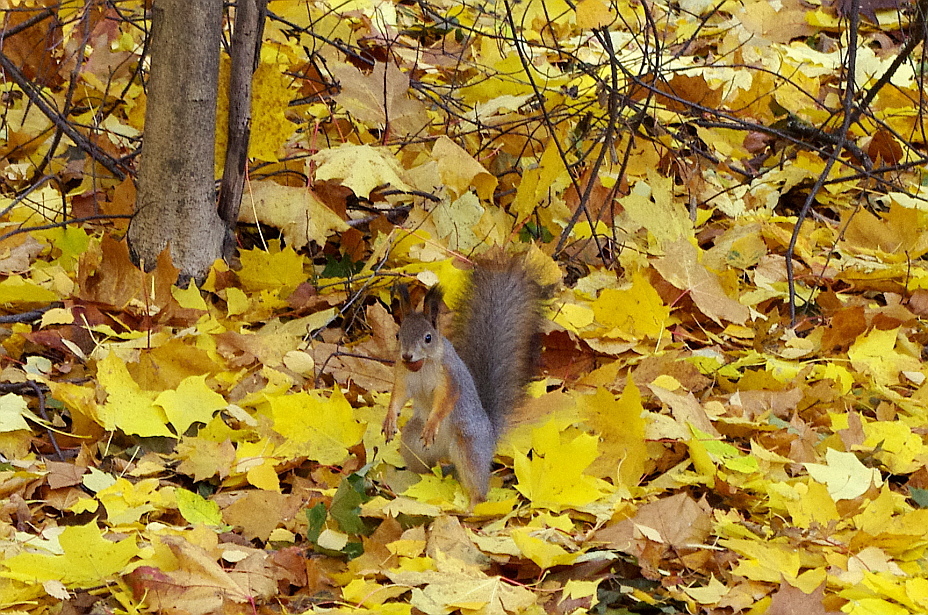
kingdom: Animalia
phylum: Chordata
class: Mammalia
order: Rodentia
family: Sciuridae
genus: Sciurus
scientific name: Sciurus vulgaris
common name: Eurasian red squirrel
